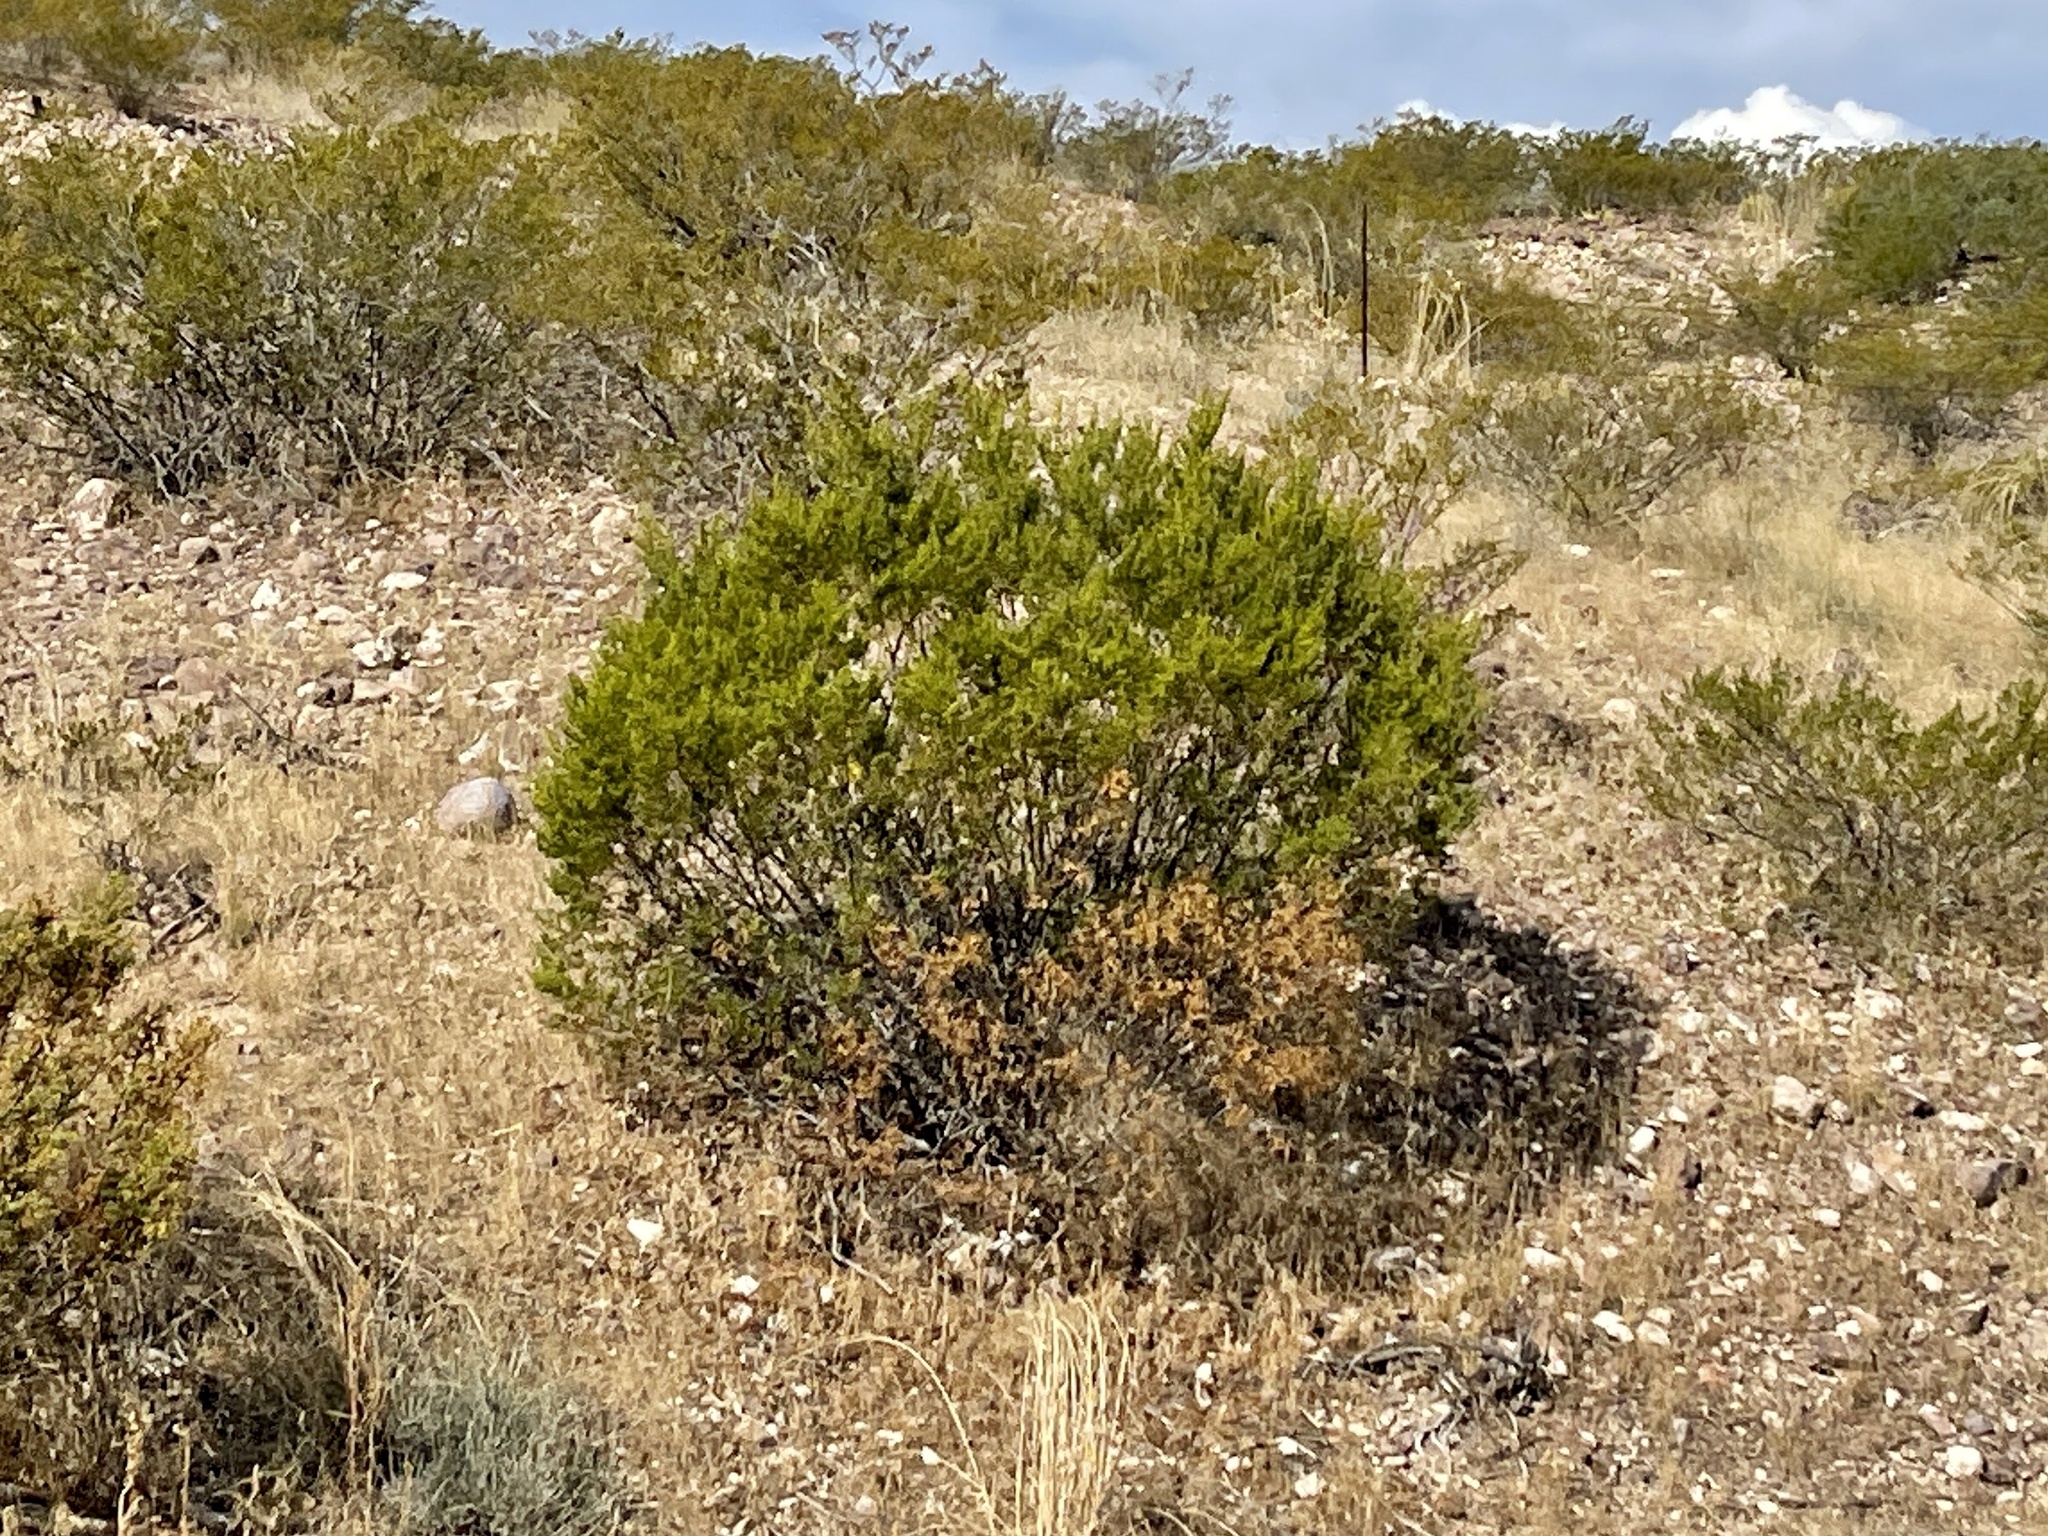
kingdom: Plantae
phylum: Tracheophyta
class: Magnoliopsida
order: Zygophyllales
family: Zygophyllaceae
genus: Larrea
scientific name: Larrea tridentata
